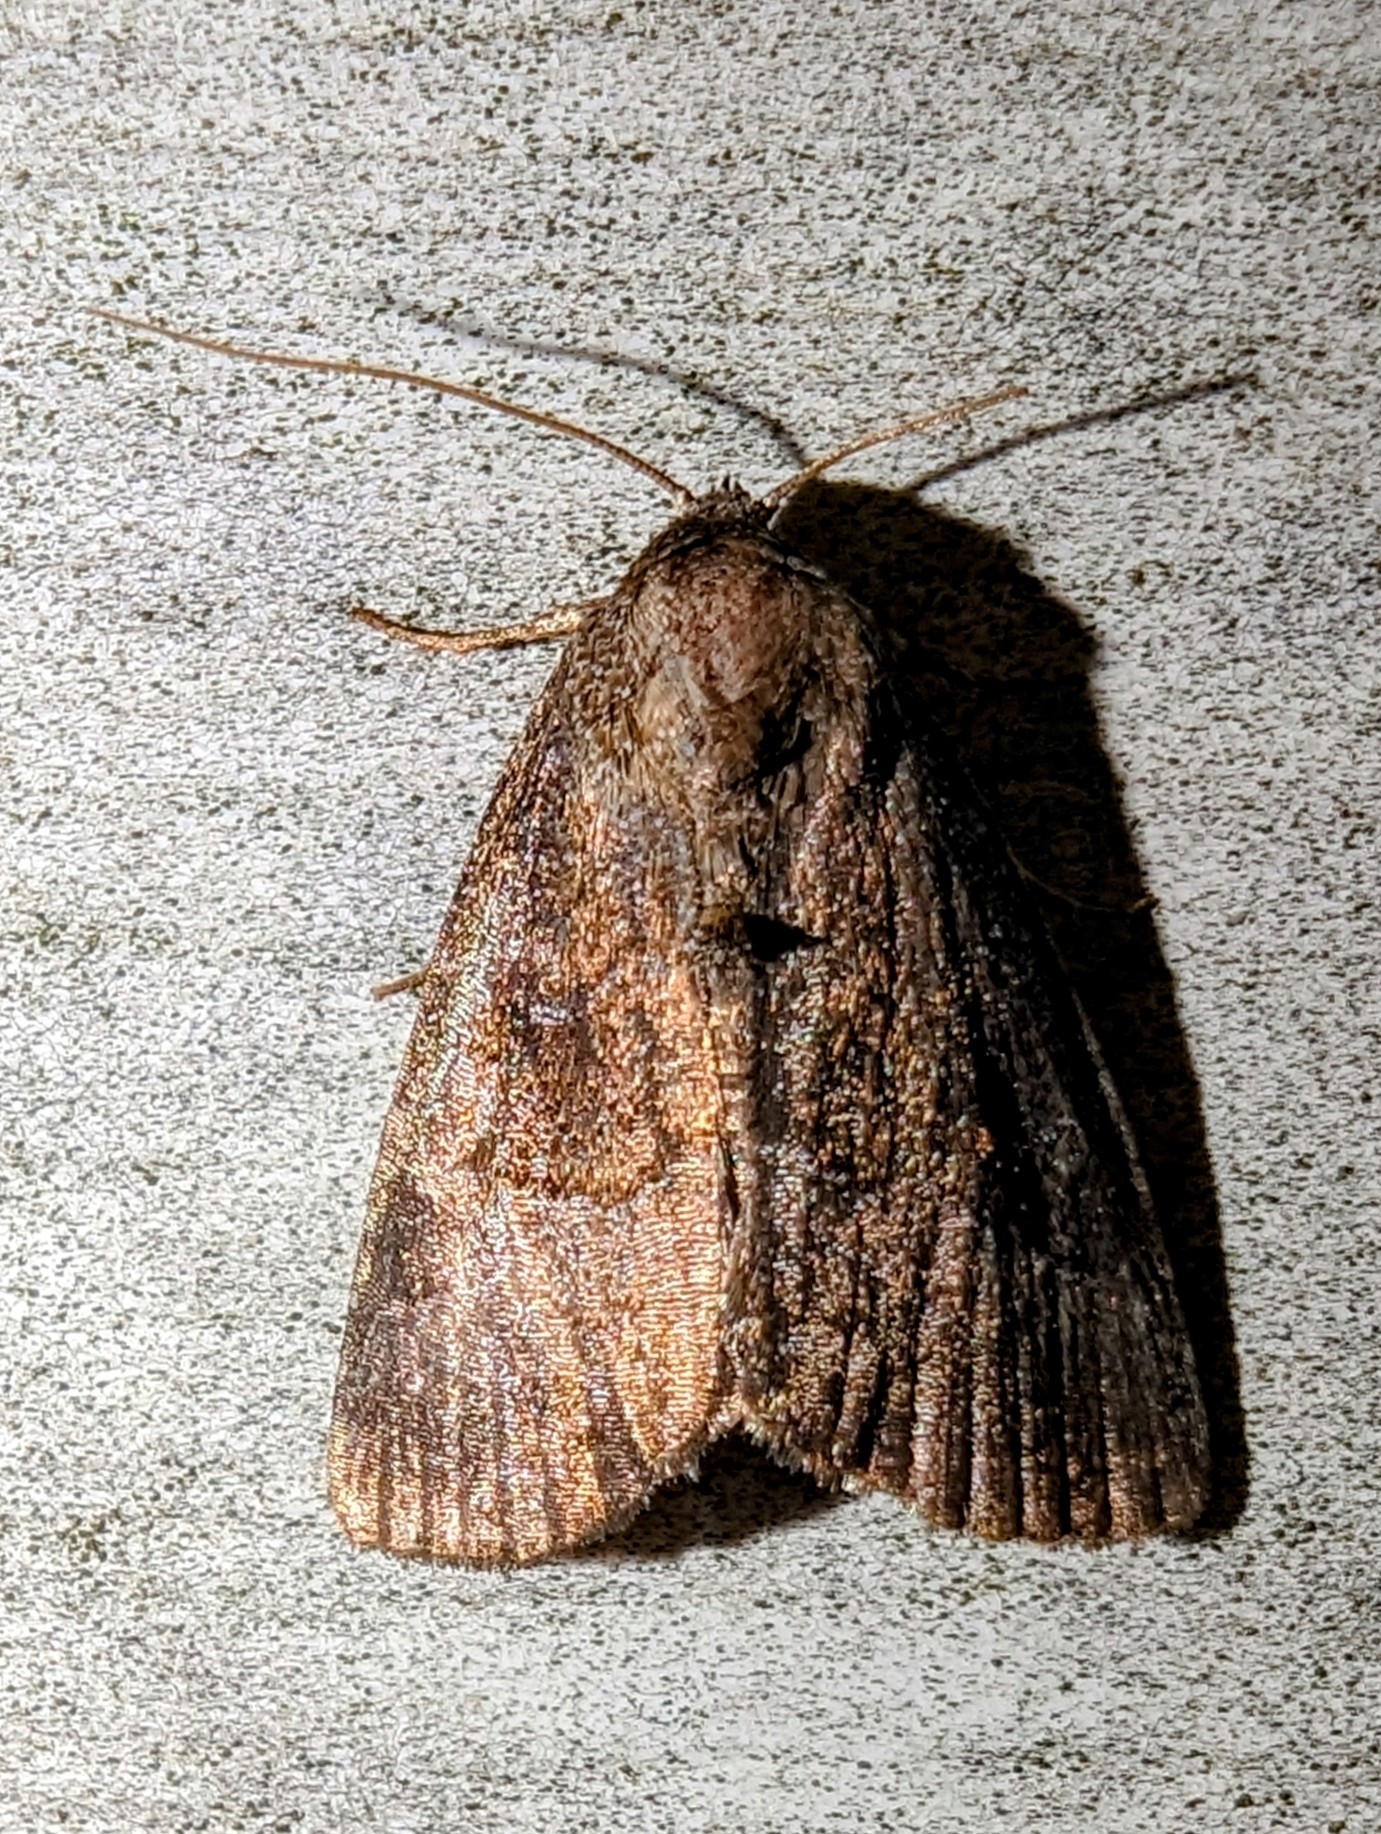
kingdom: Animalia
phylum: Arthropoda
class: Insecta
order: Lepidoptera
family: Noctuidae
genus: Ogdoconta
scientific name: Ogdoconta cinereola
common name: Common pinkband
